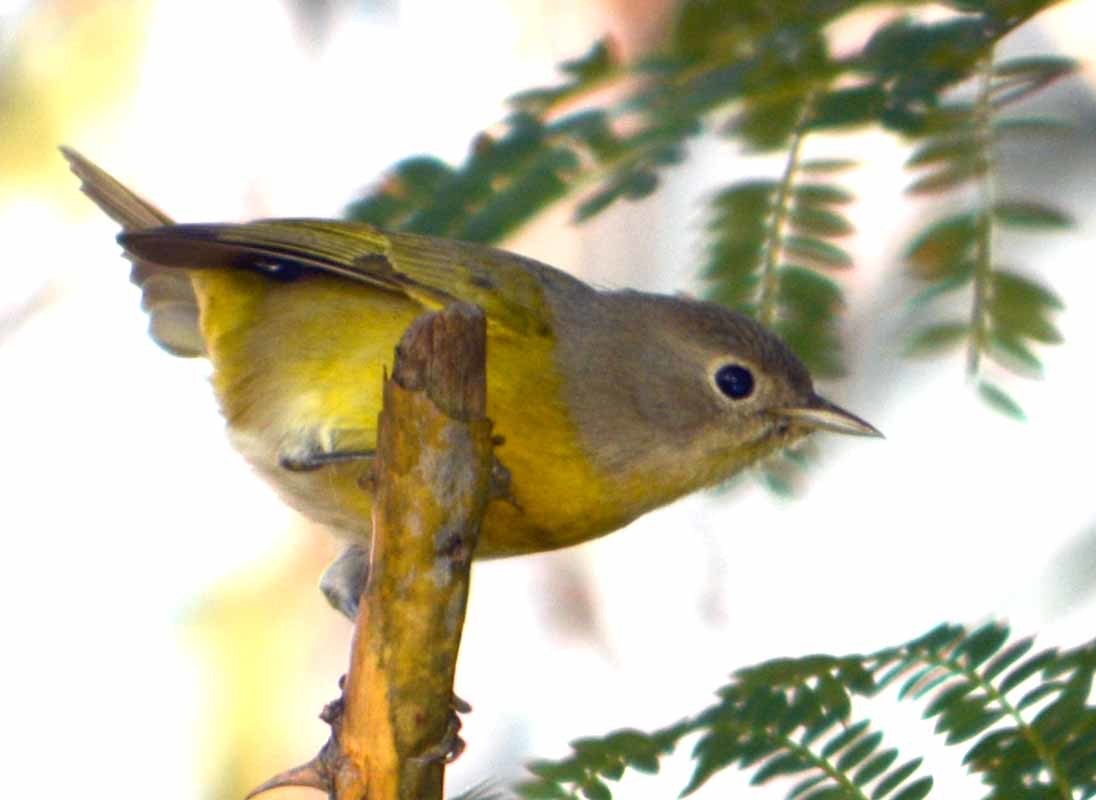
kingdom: Animalia
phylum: Chordata
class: Aves
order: Passeriformes
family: Parulidae
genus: Leiothlypis
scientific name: Leiothlypis ruficapilla
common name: Nashville warbler
